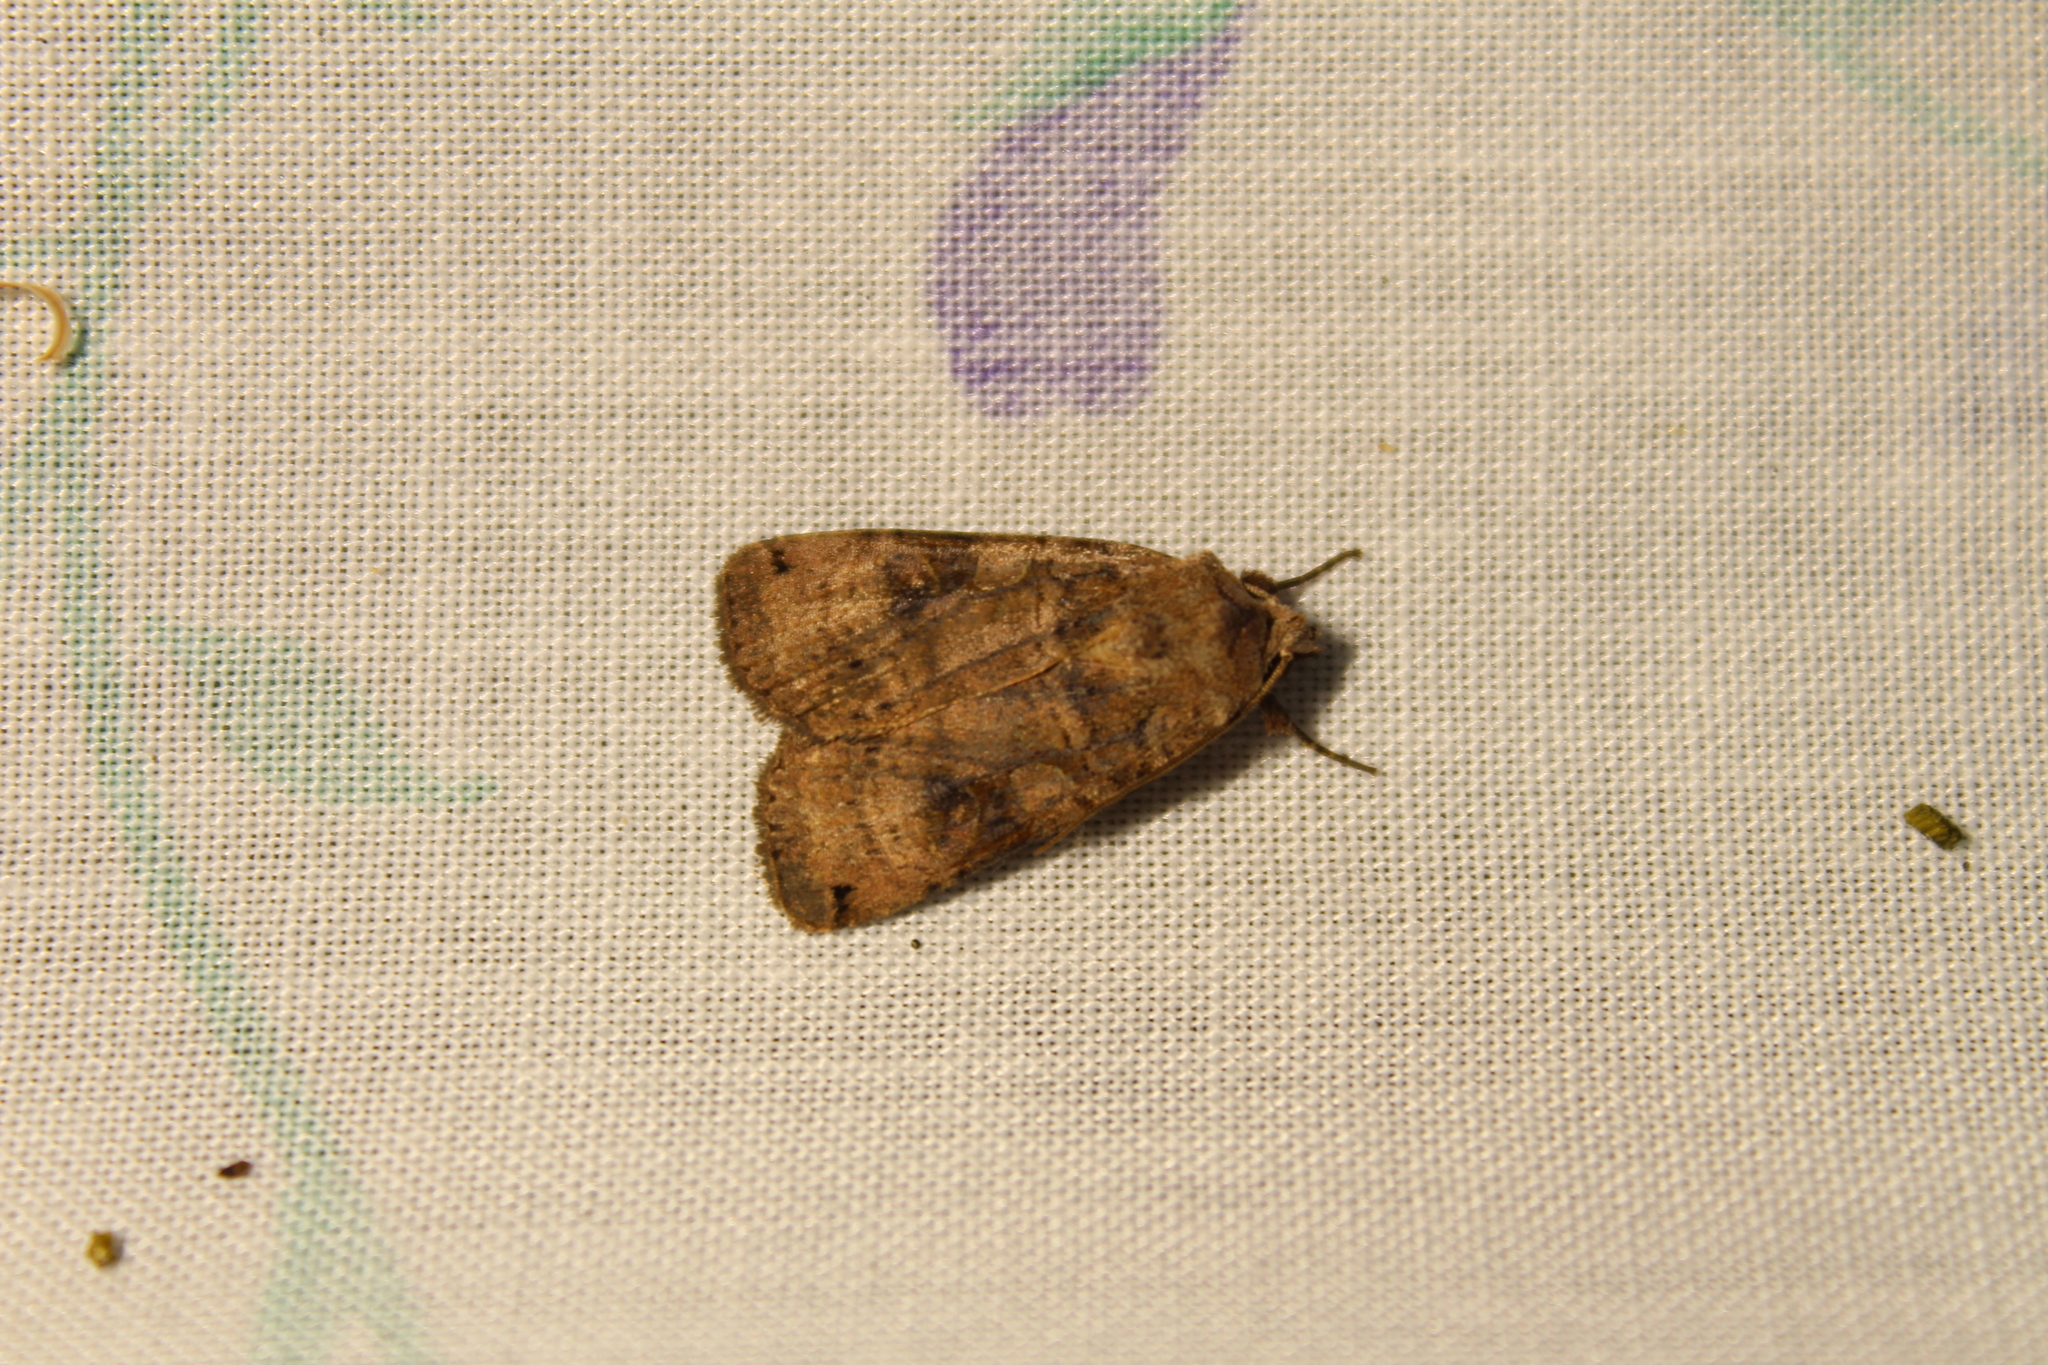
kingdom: Animalia
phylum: Arthropoda
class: Insecta
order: Lepidoptera
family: Noctuidae
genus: Xestia
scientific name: Xestia smithii
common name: Smith's dart
